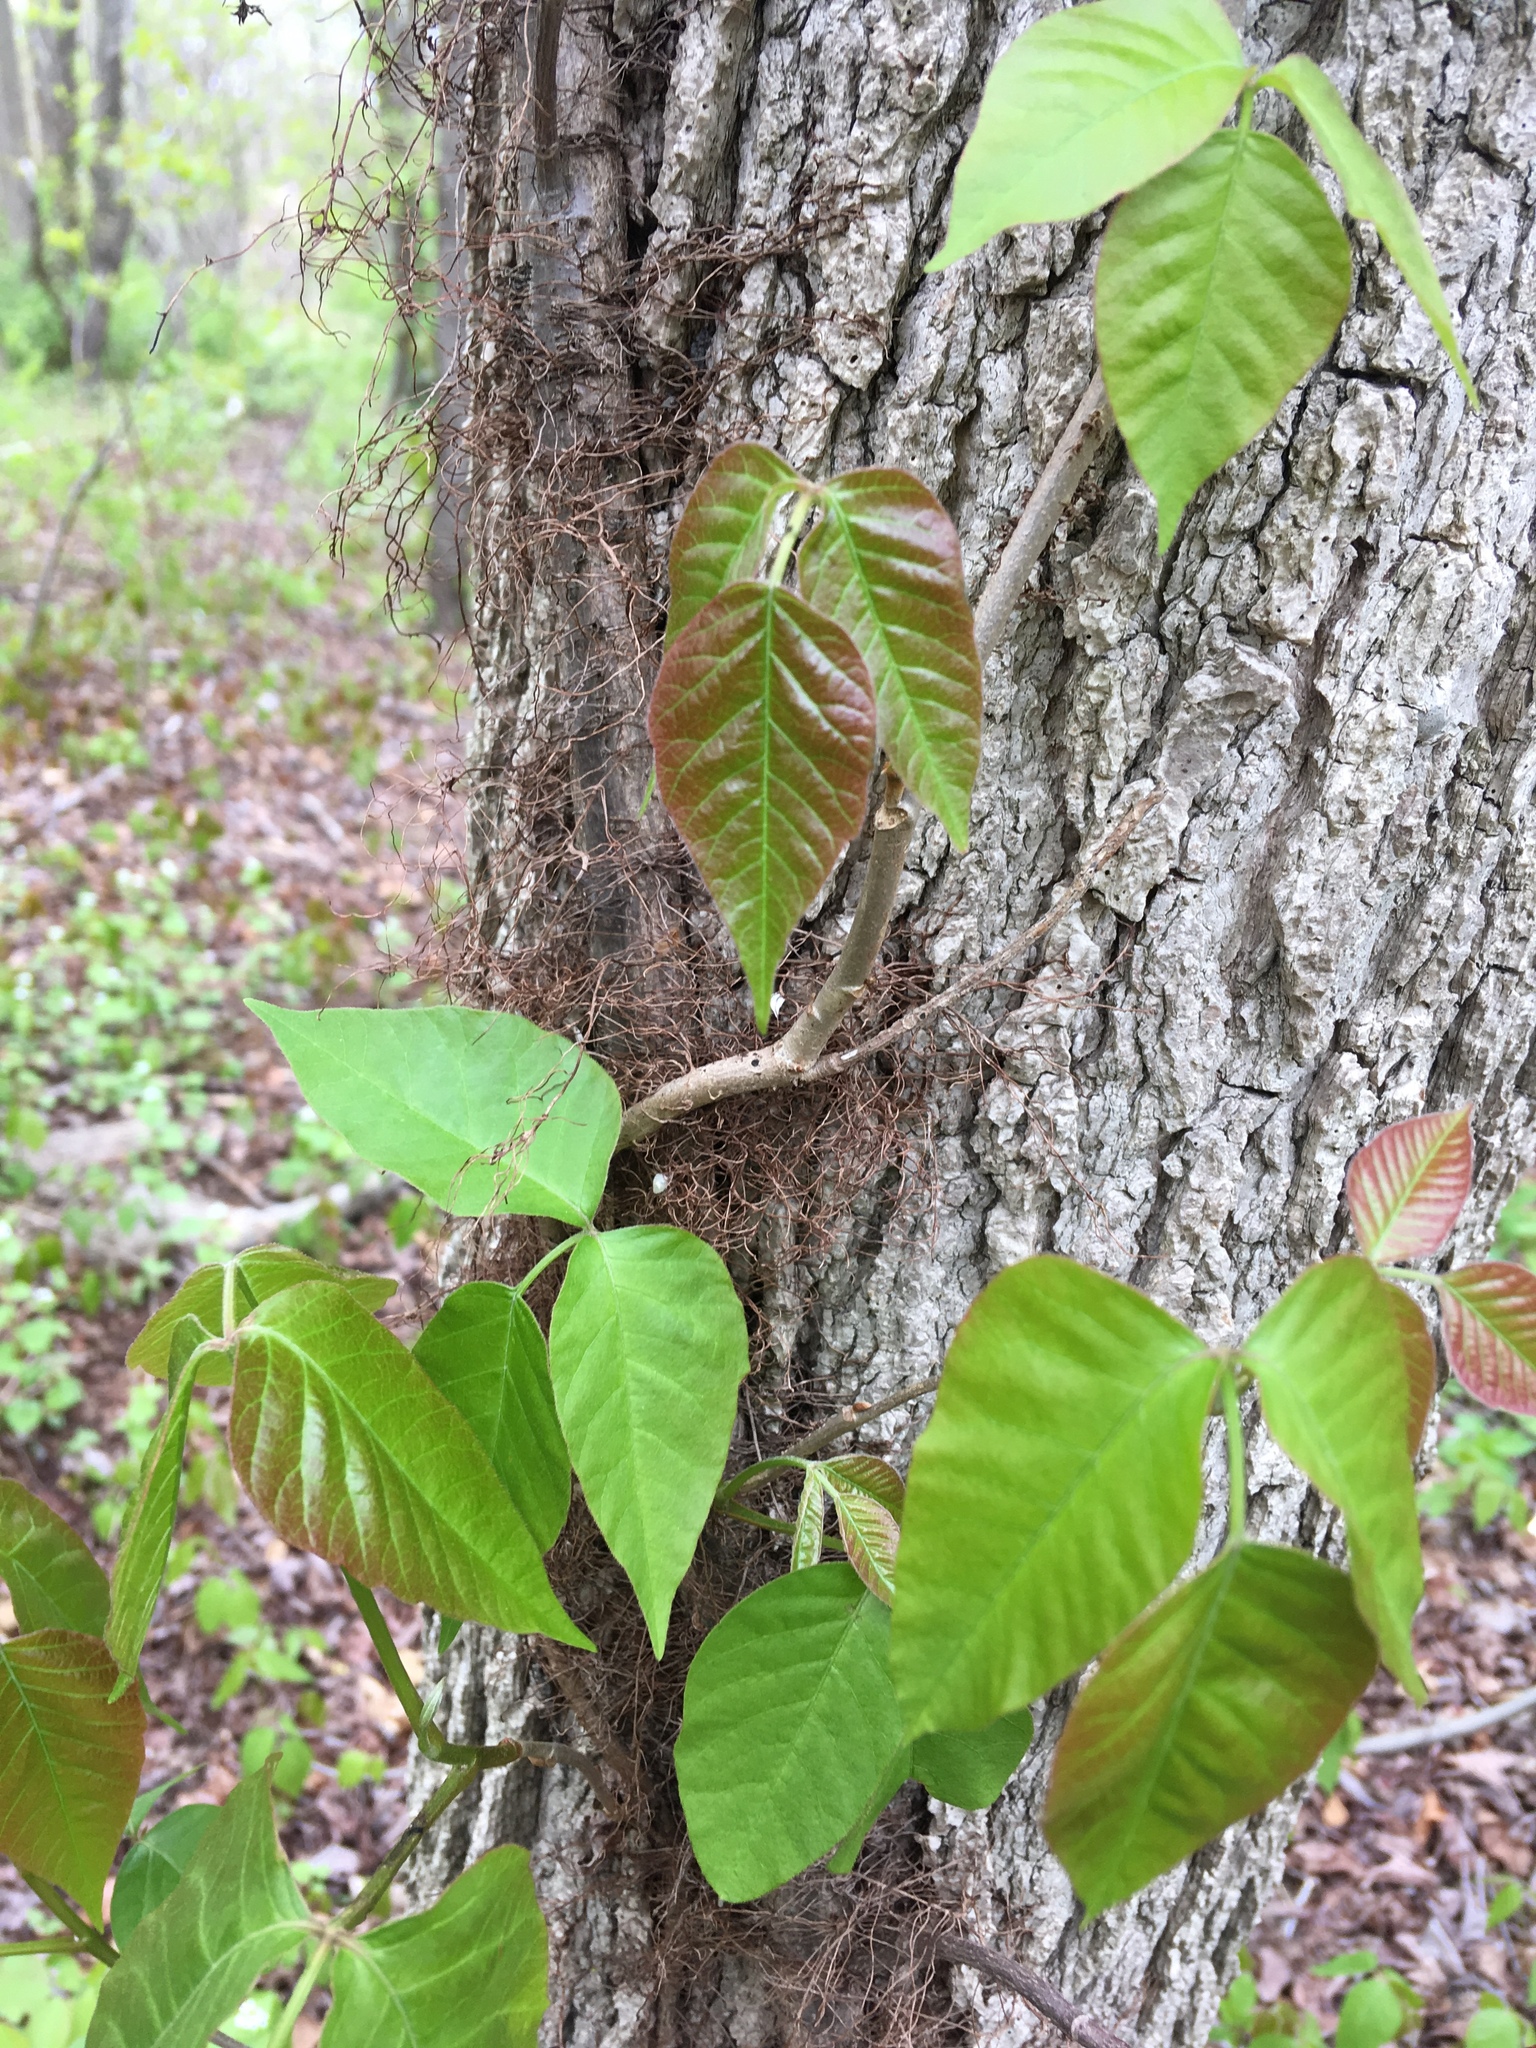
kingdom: Plantae
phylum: Tracheophyta
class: Magnoliopsida
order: Sapindales
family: Anacardiaceae
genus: Toxicodendron
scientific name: Toxicodendron radicans
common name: Poison ivy
